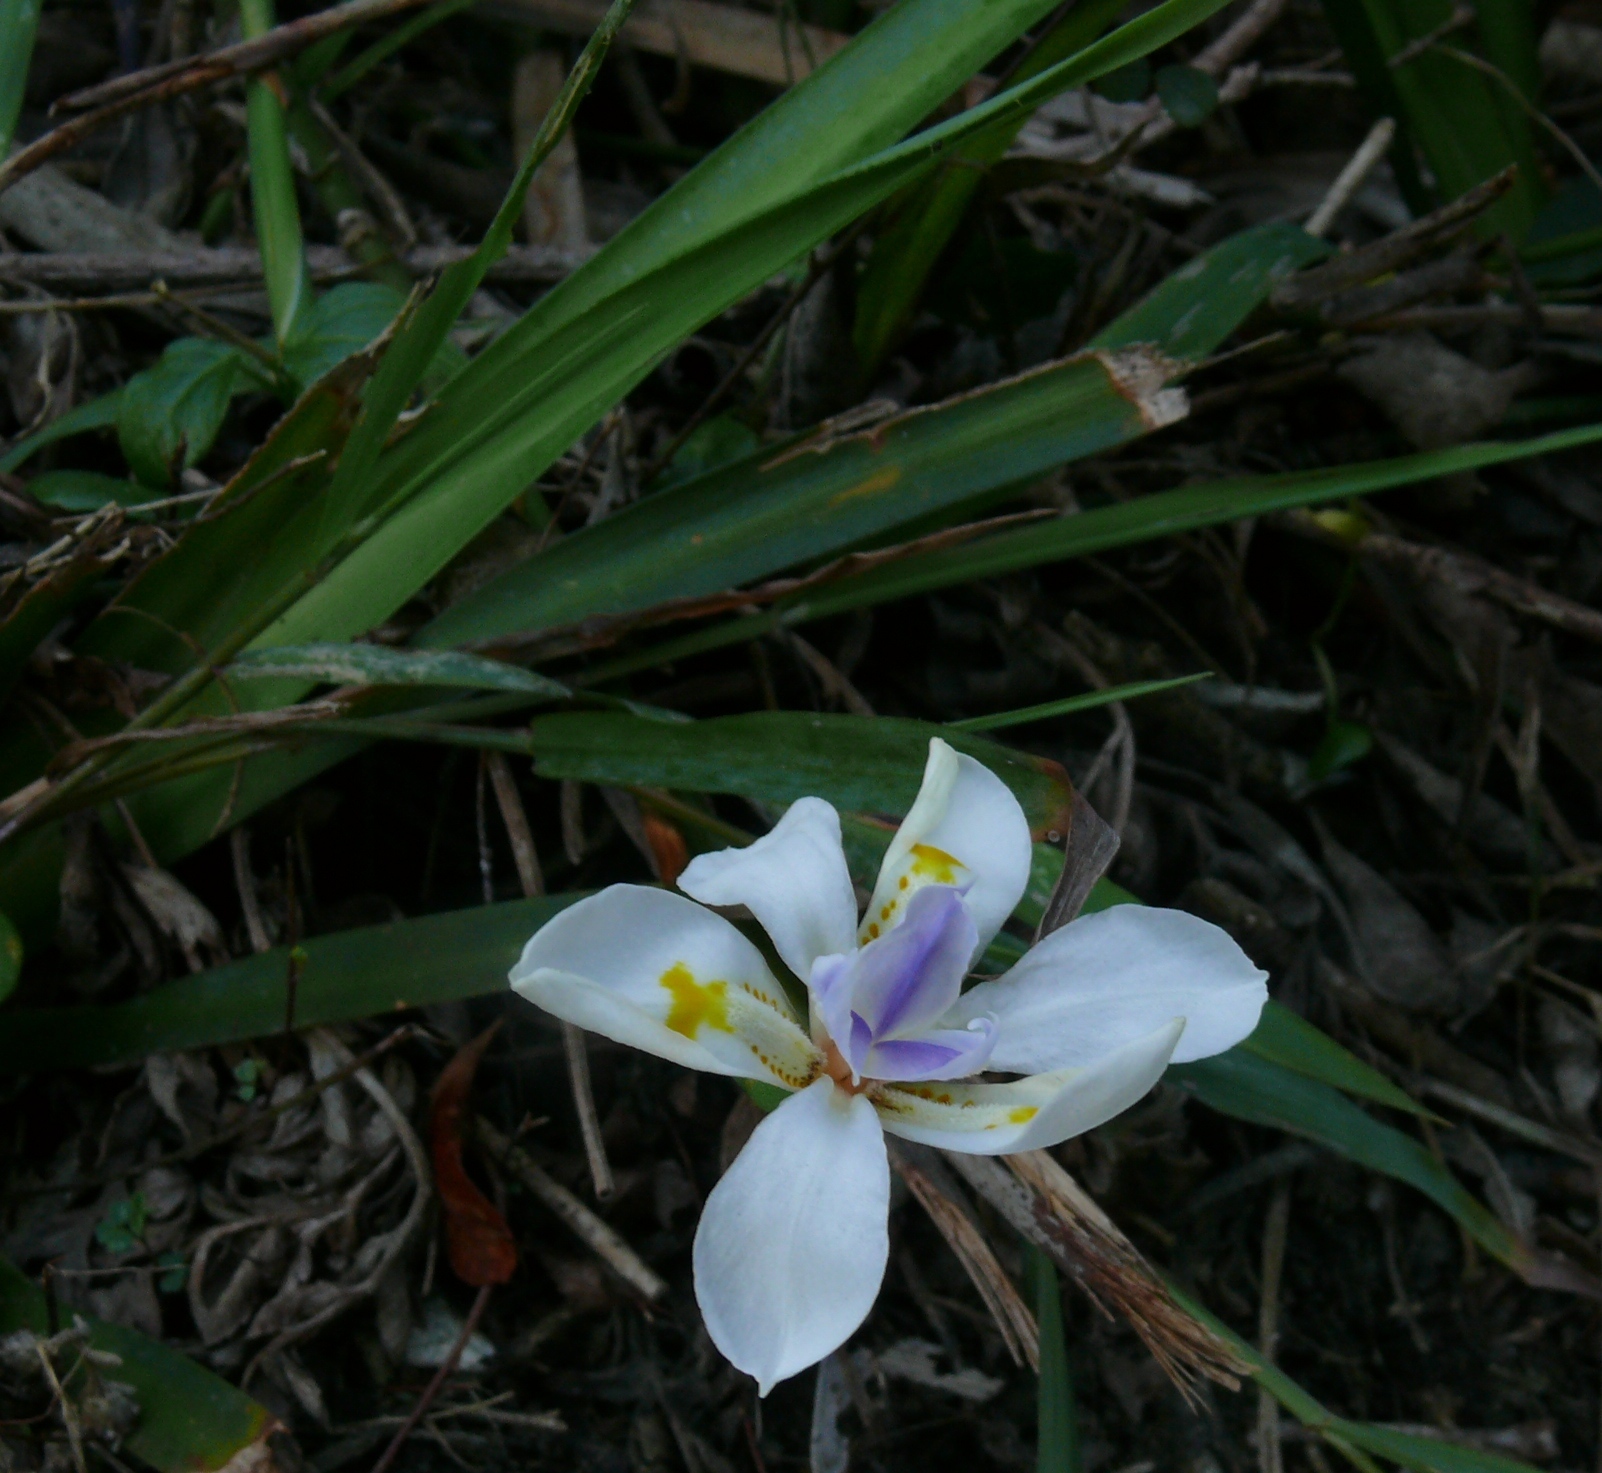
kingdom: Plantae
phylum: Tracheophyta
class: Liliopsida
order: Asparagales
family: Iridaceae
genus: Dietes
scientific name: Dietes iridioides
